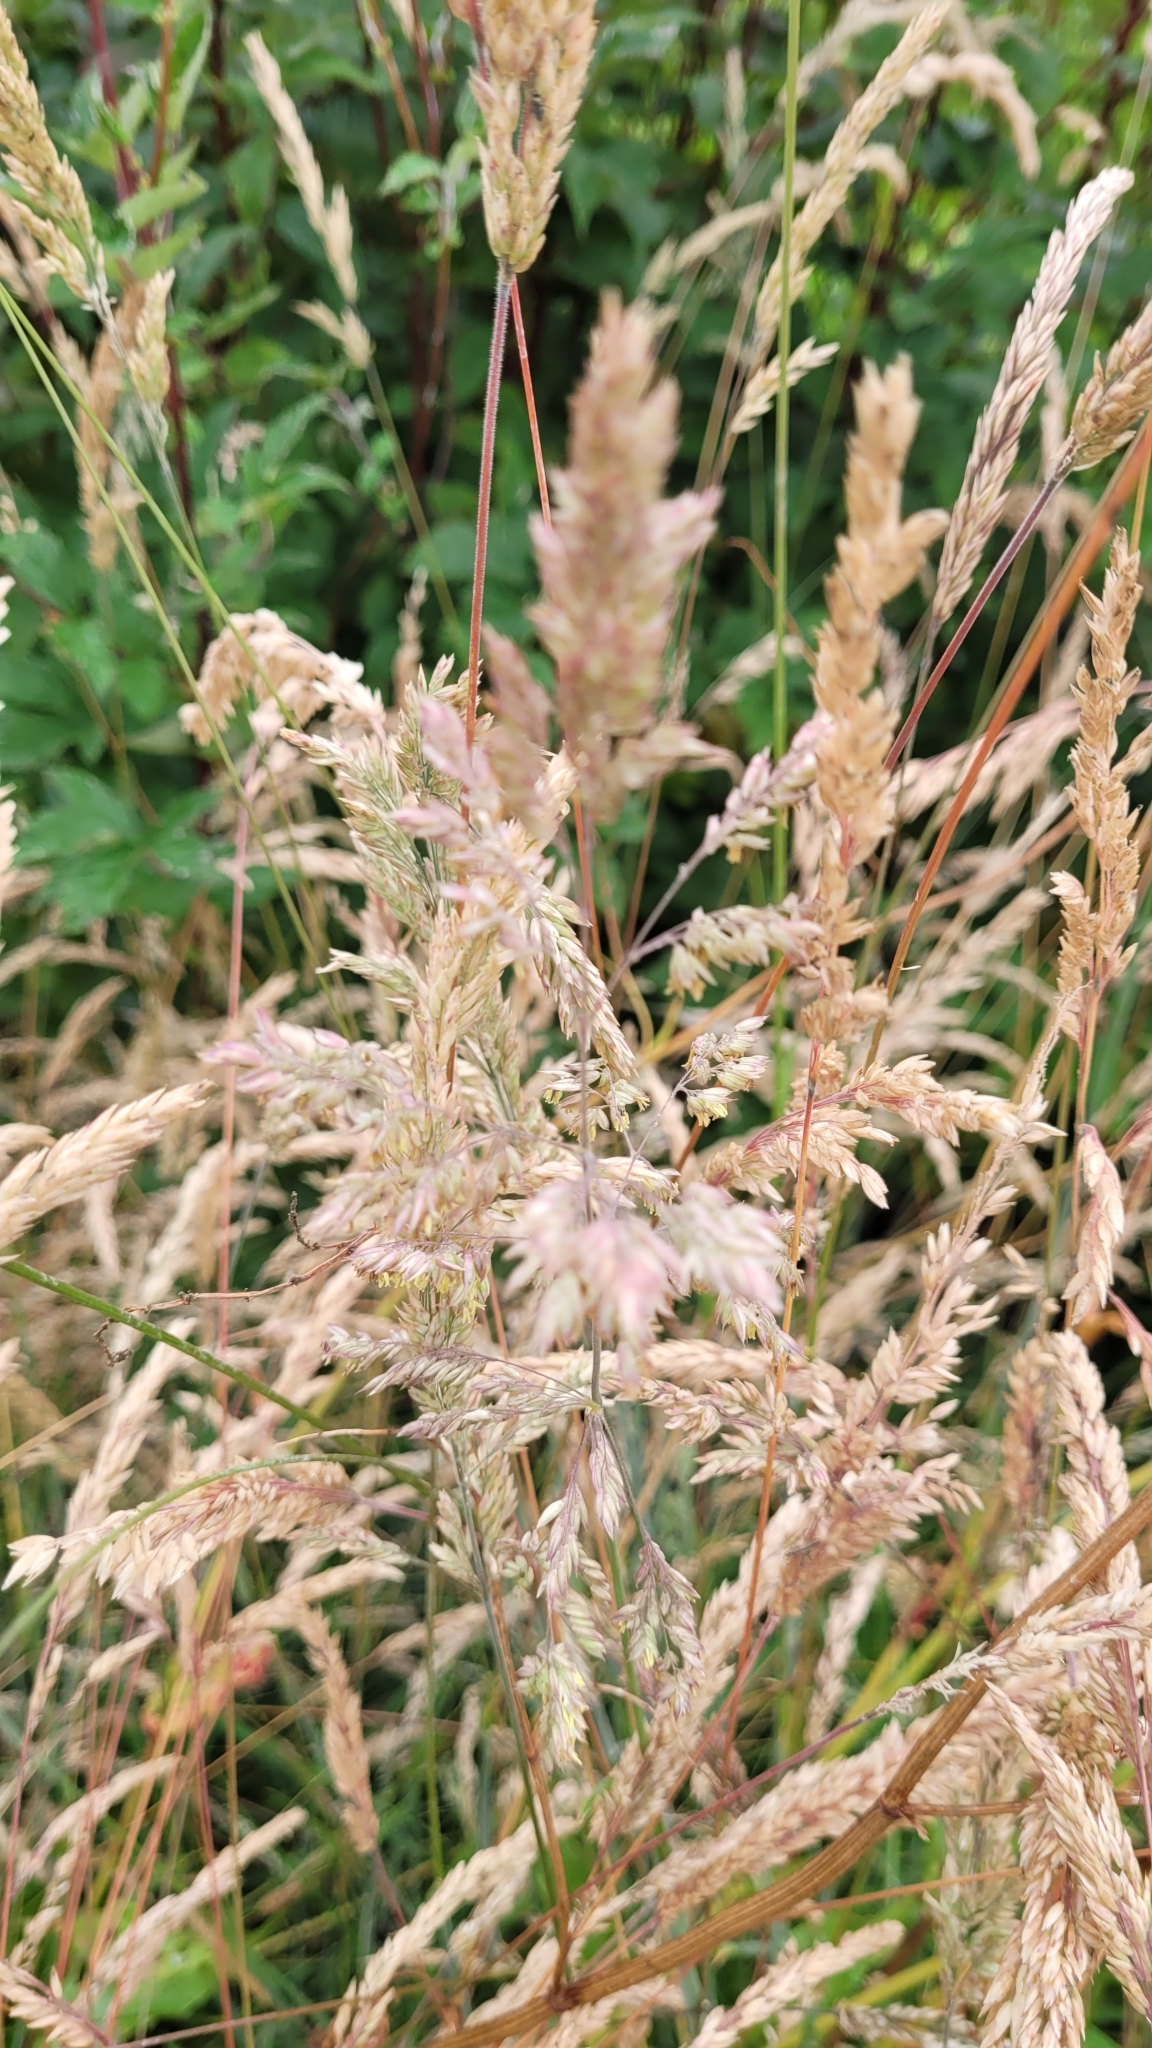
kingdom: Plantae
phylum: Tracheophyta
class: Liliopsida
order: Poales
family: Poaceae
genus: Holcus
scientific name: Holcus lanatus
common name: Yorkshire-fog
